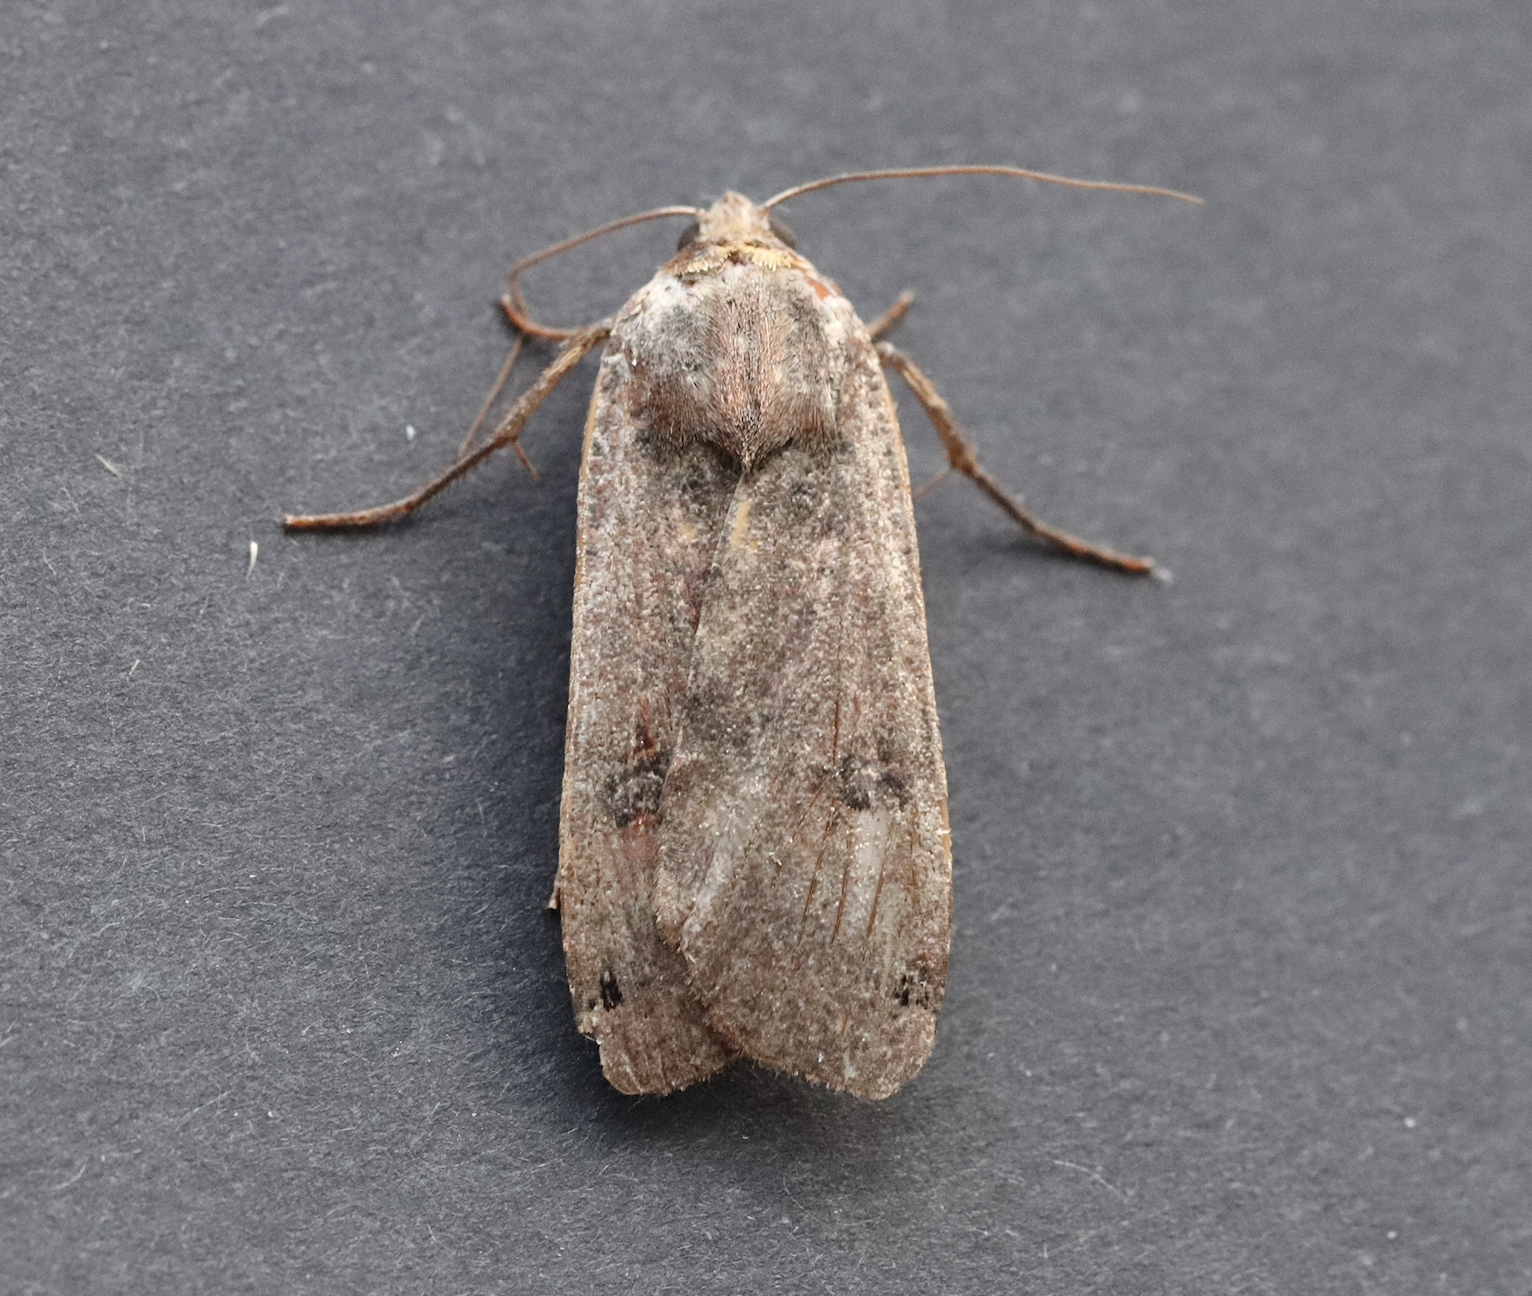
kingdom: Animalia
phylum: Arthropoda
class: Insecta
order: Lepidoptera
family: Noctuidae
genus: Noctua
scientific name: Noctua pronuba
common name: Large yellow underwing
